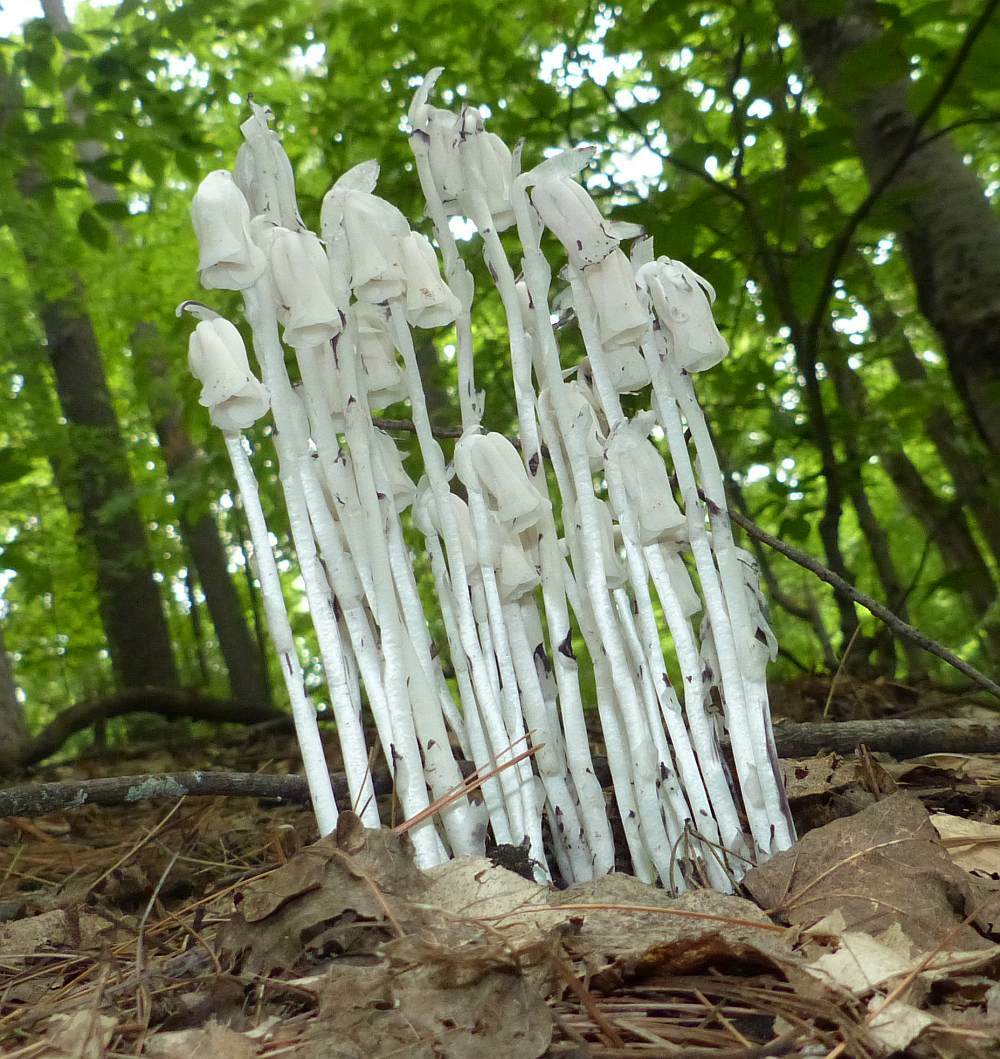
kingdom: Plantae
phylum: Tracheophyta
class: Magnoliopsida
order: Ericales
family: Ericaceae
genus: Monotropa
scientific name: Monotropa uniflora
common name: Convulsion root
